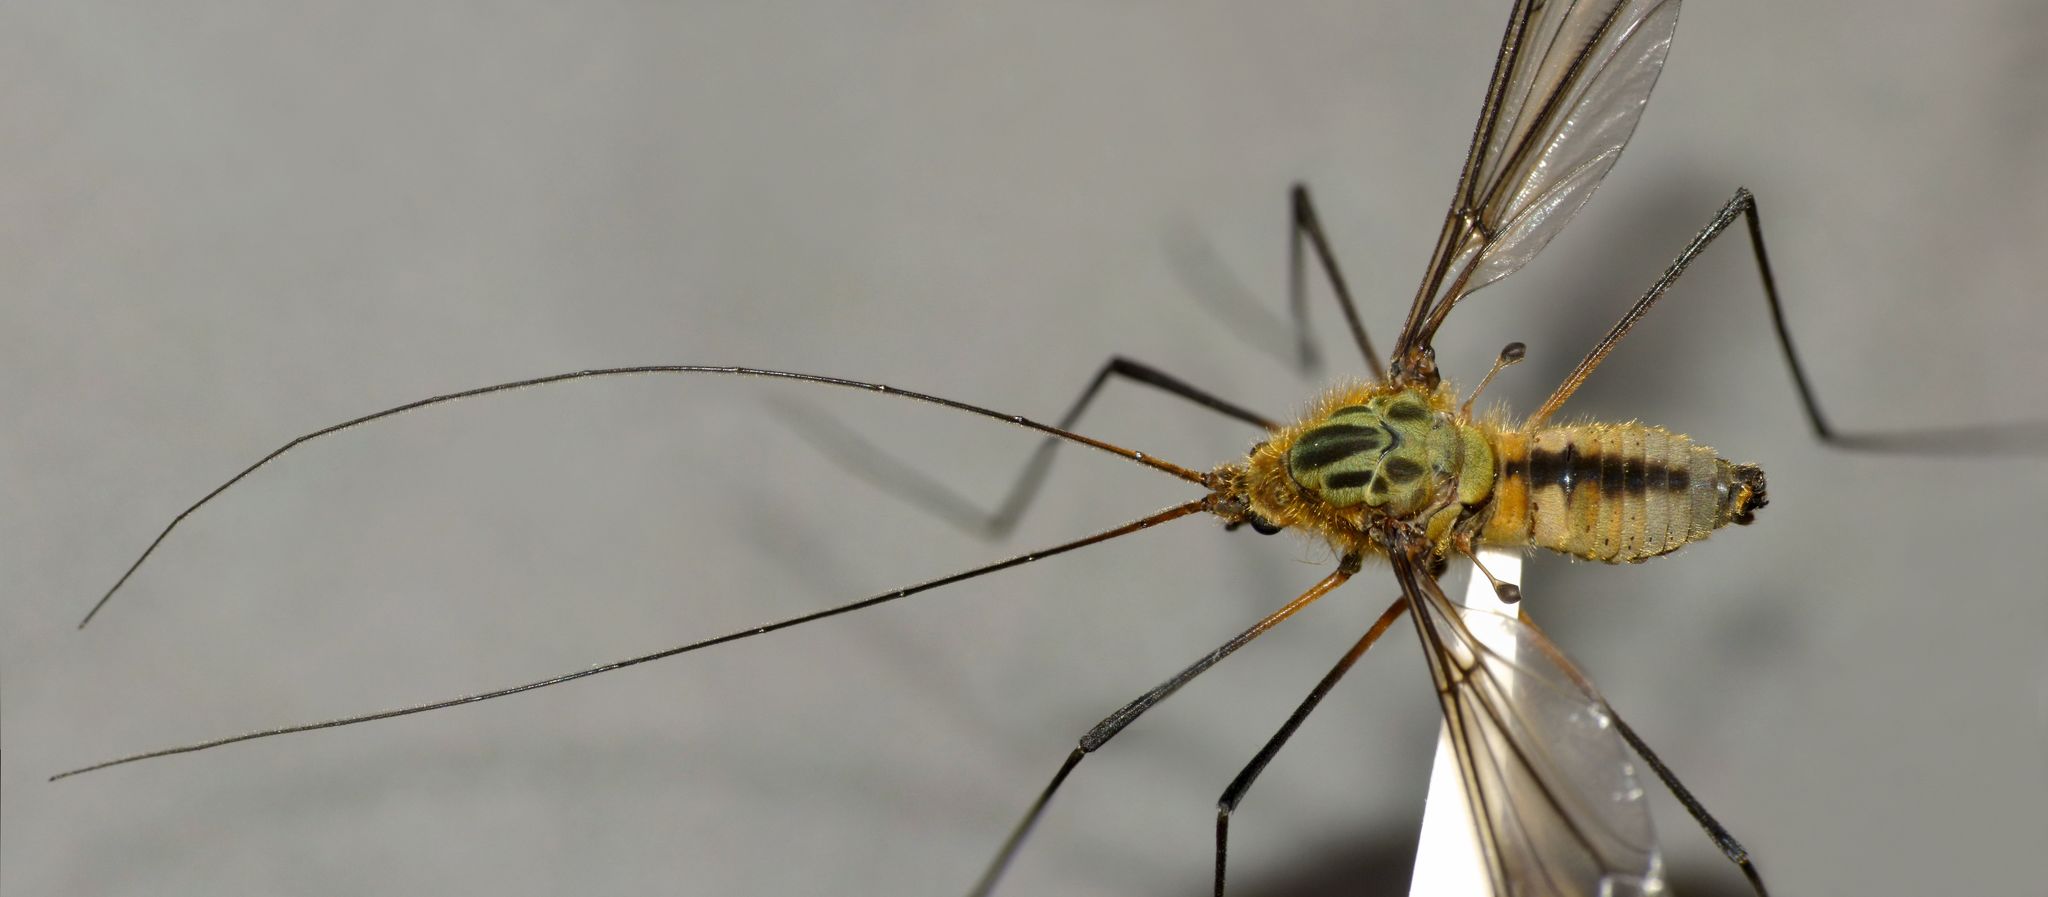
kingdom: Animalia
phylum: Arthropoda
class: Insecta
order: Diptera
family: Tipulidae
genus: Leptotarsus
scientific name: Leptotarsus vulpinus
